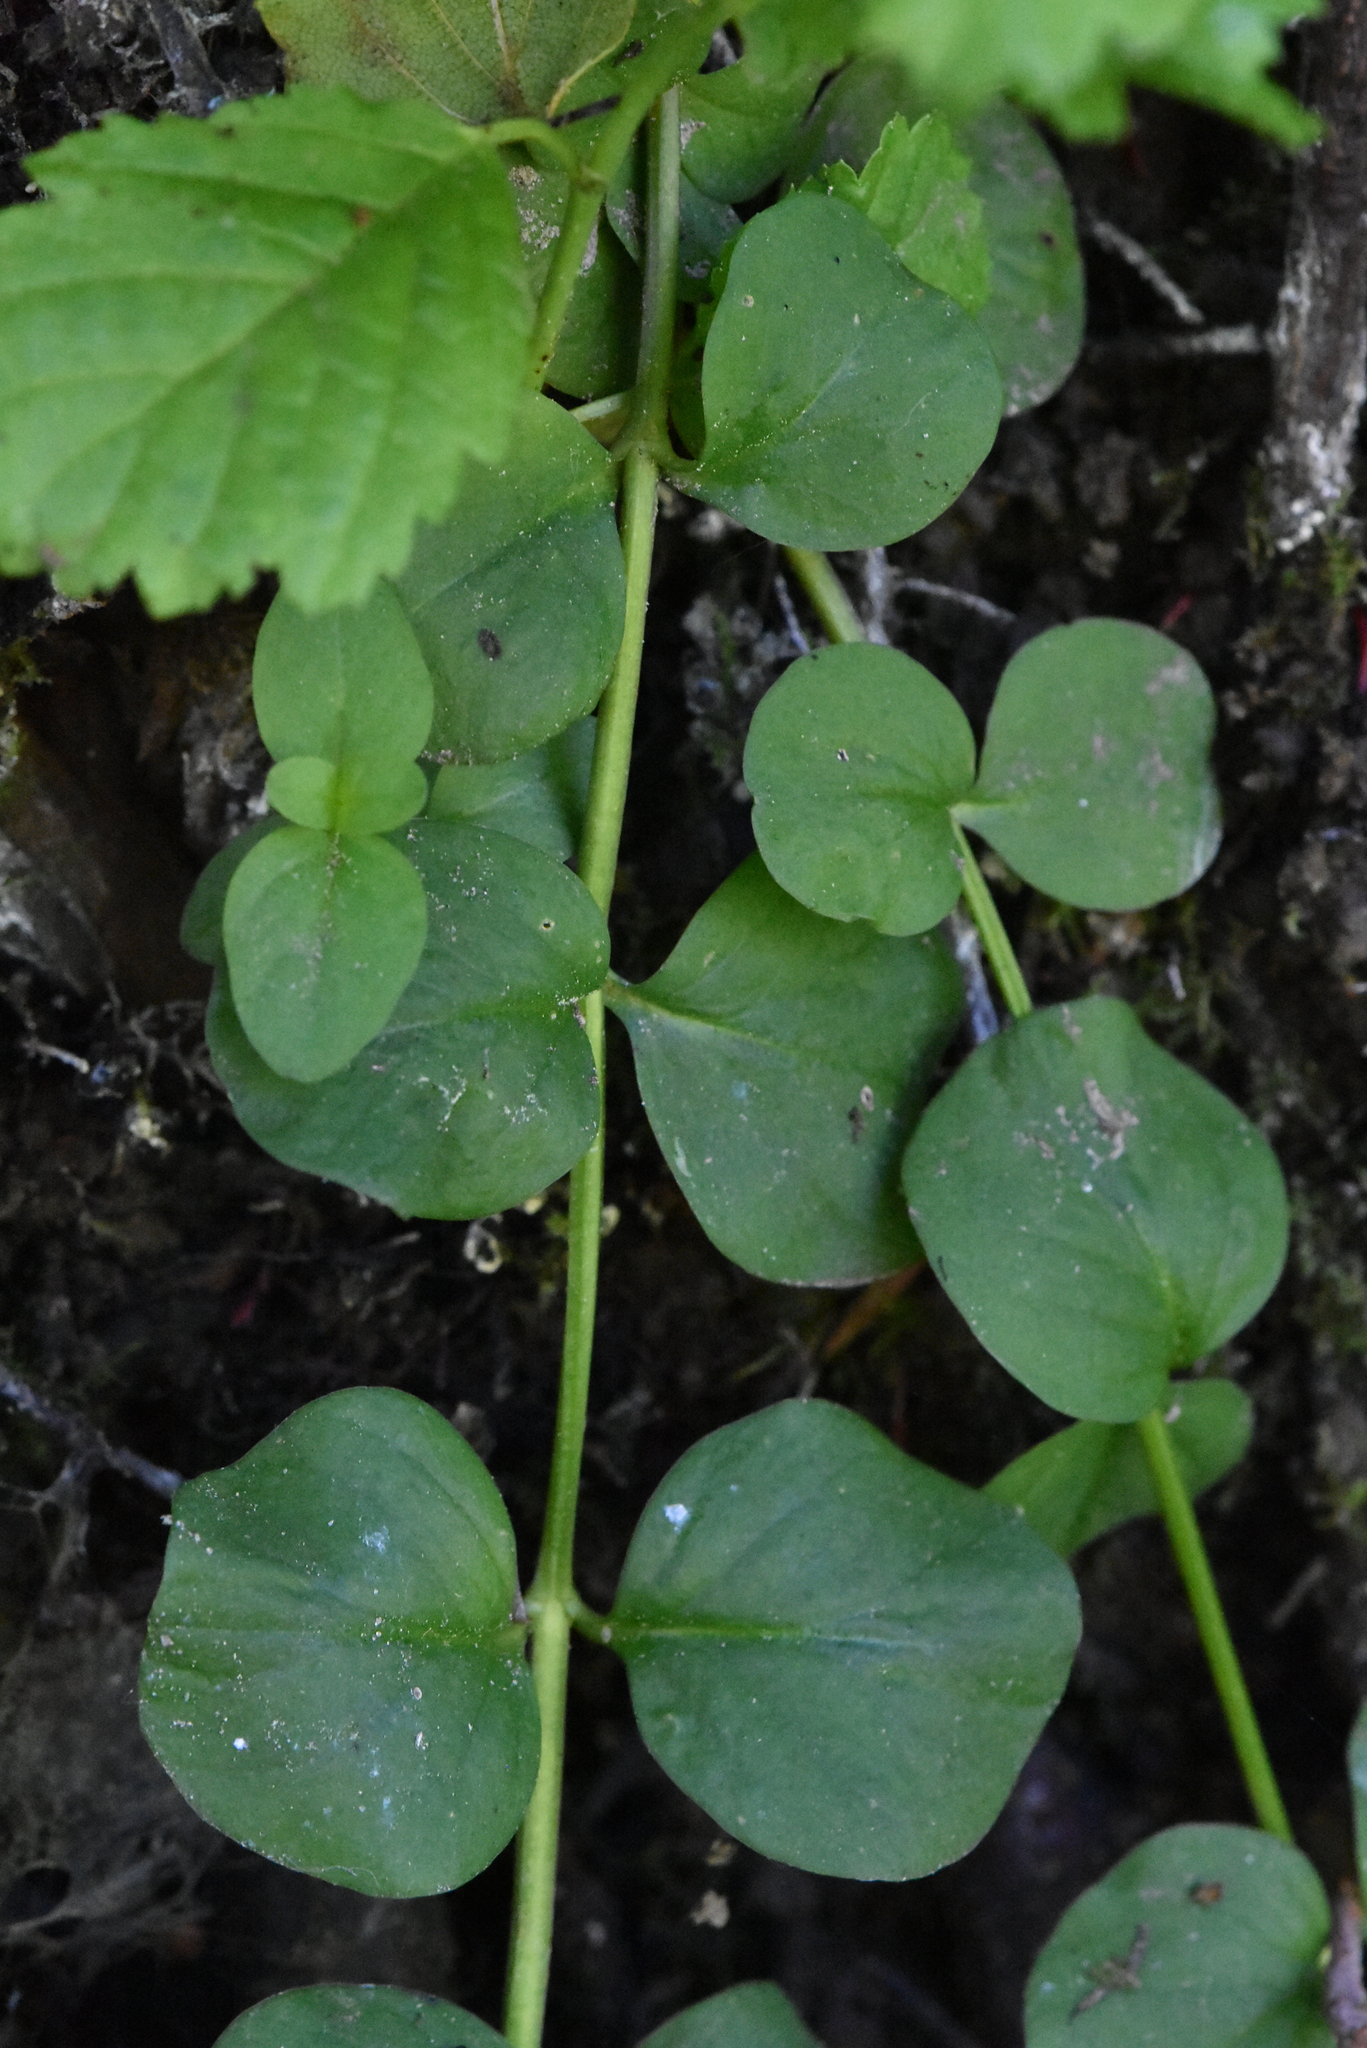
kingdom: Plantae
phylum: Tracheophyta
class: Magnoliopsida
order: Ericales
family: Primulaceae
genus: Lysimachia
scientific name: Lysimachia nummularia
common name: Moneywort
